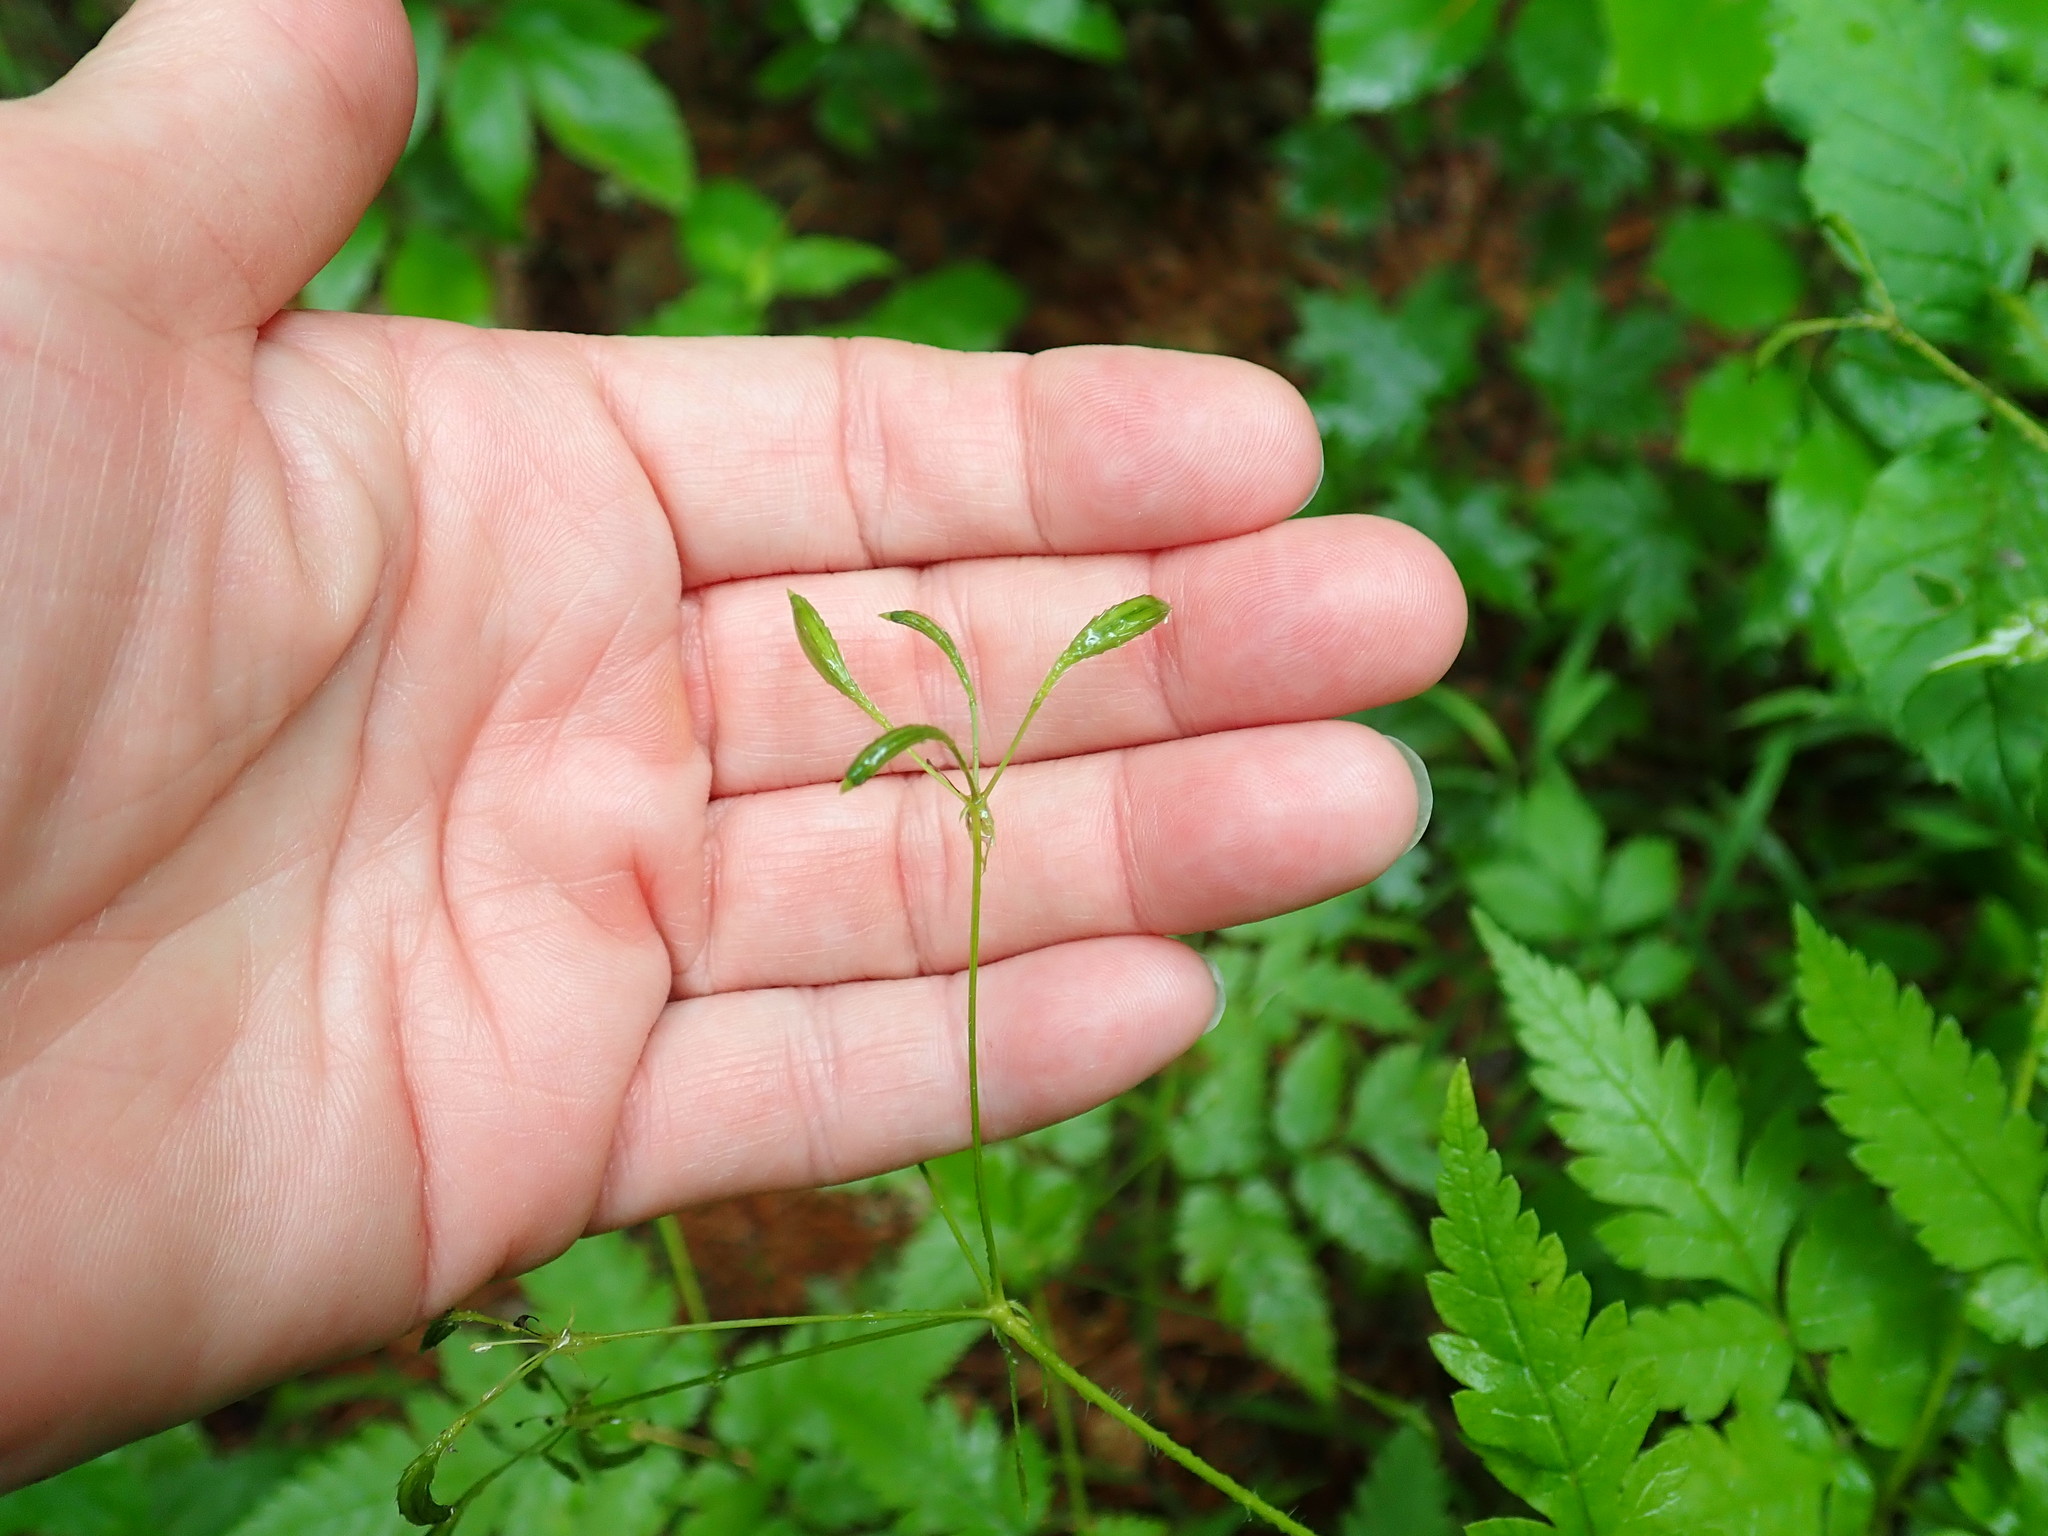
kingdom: Plantae
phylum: Tracheophyta
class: Magnoliopsida
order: Apiales
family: Apiaceae
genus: Osmorhiza
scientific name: Osmorhiza
